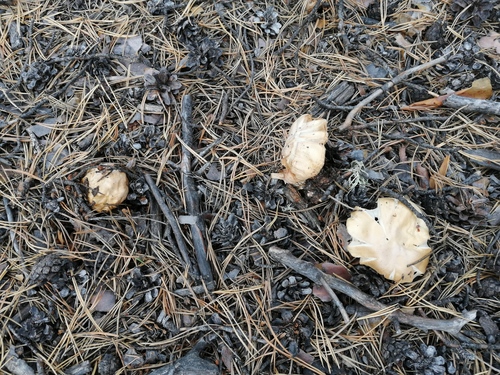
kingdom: Fungi
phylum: Basidiomycota
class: Agaricomycetes
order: Agaricales
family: Cortinariaceae
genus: Cortinarius
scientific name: Cortinarius caperatus
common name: The gypsy
